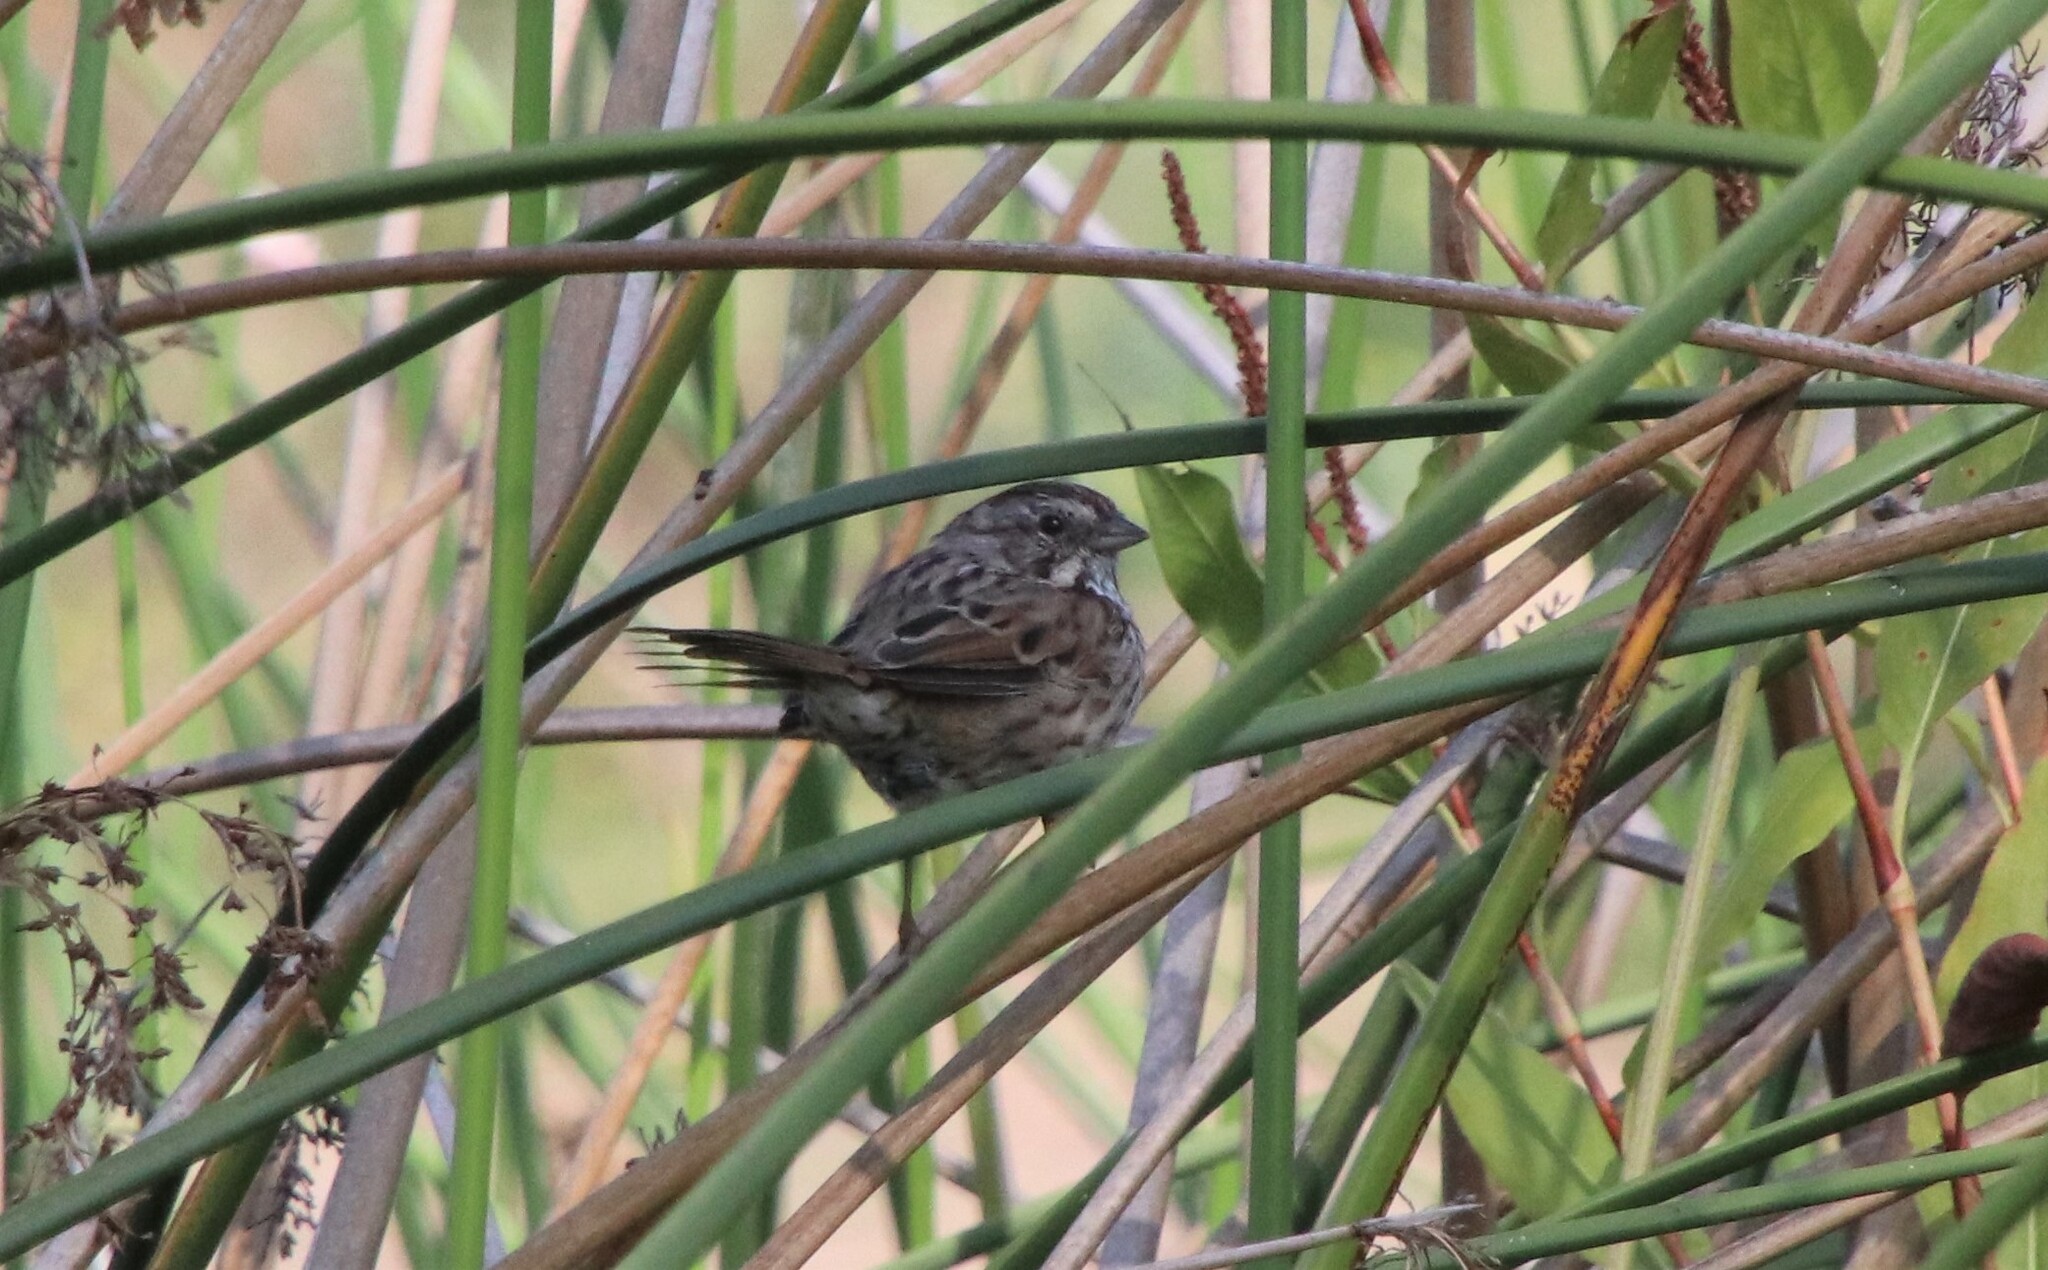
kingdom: Animalia
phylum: Chordata
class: Aves
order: Passeriformes
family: Passerellidae
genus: Melospiza
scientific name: Melospiza melodia
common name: Song sparrow
